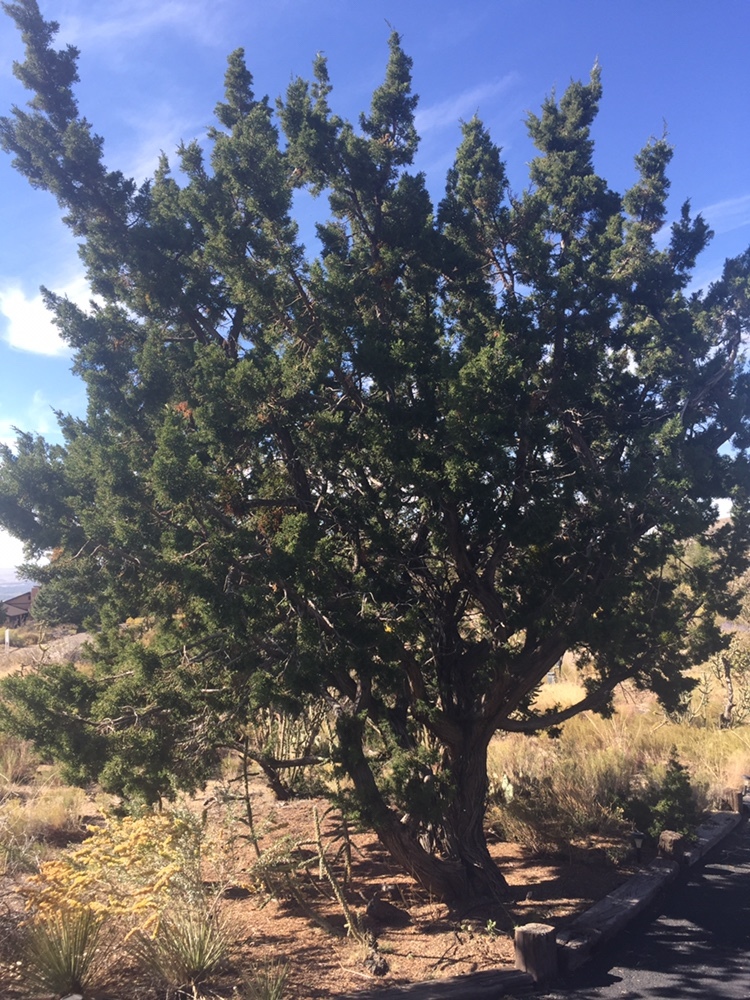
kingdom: Plantae
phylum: Tracheophyta
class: Pinopsida
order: Pinales
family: Cupressaceae
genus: Juniperus
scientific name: Juniperus monosperma
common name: One-seed juniper
